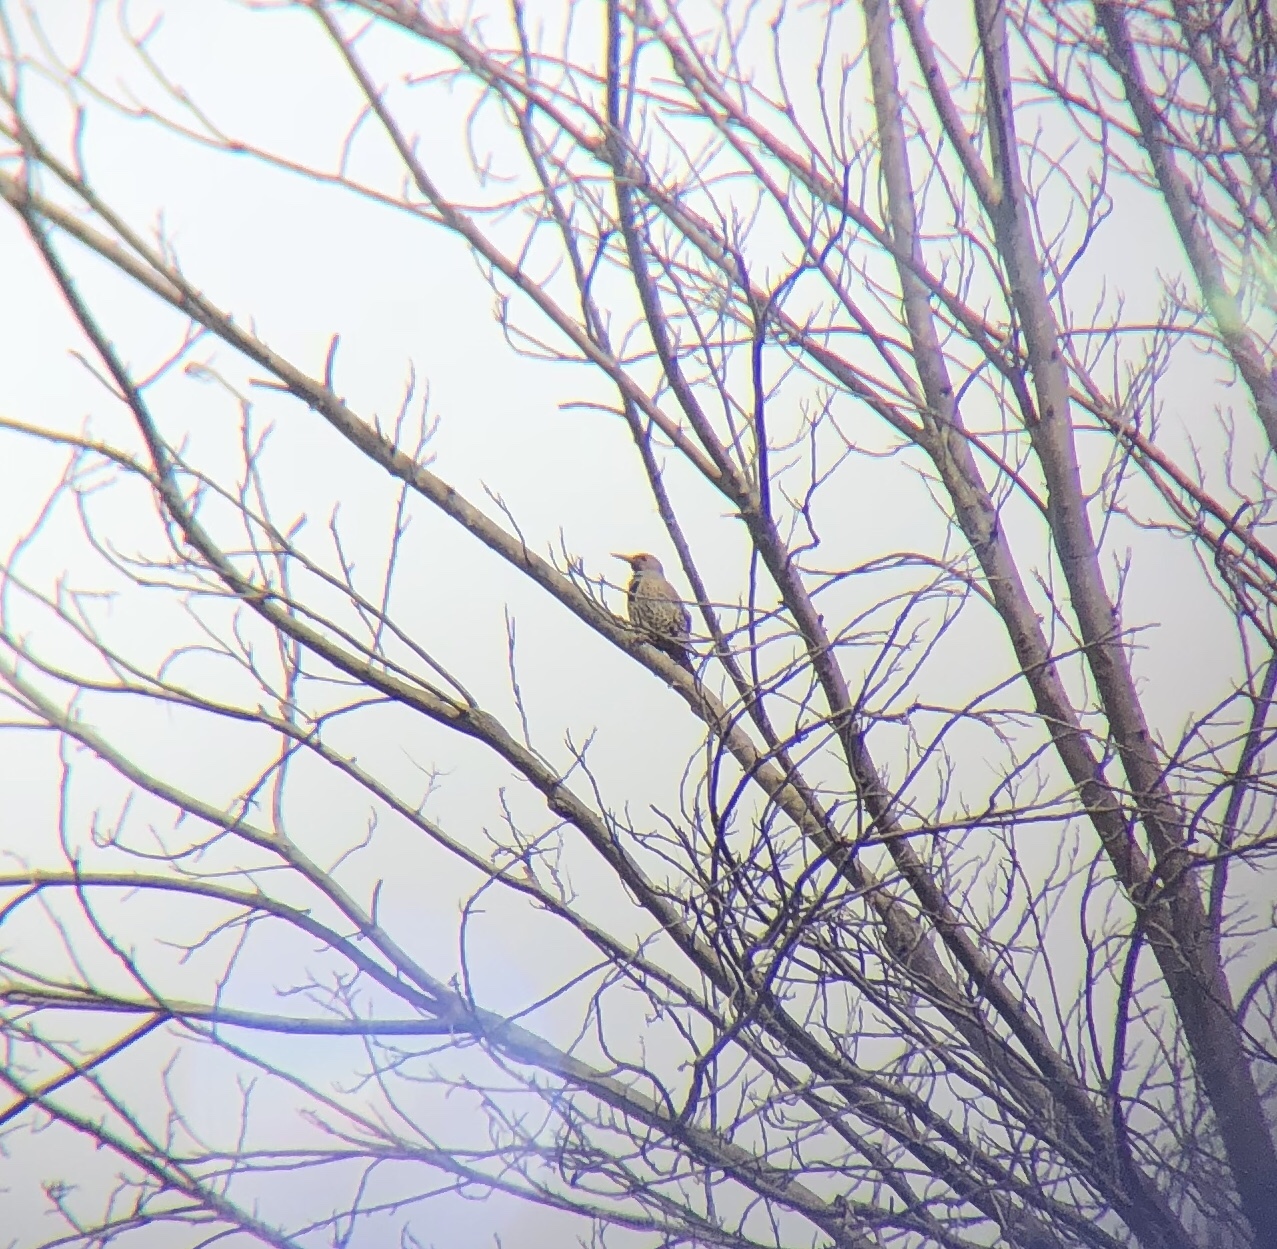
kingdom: Animalia
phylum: Chordata
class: Aves
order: Piciformes
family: Picidae
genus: Colaptes
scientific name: Colaptes auratus
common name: Northern flicker
